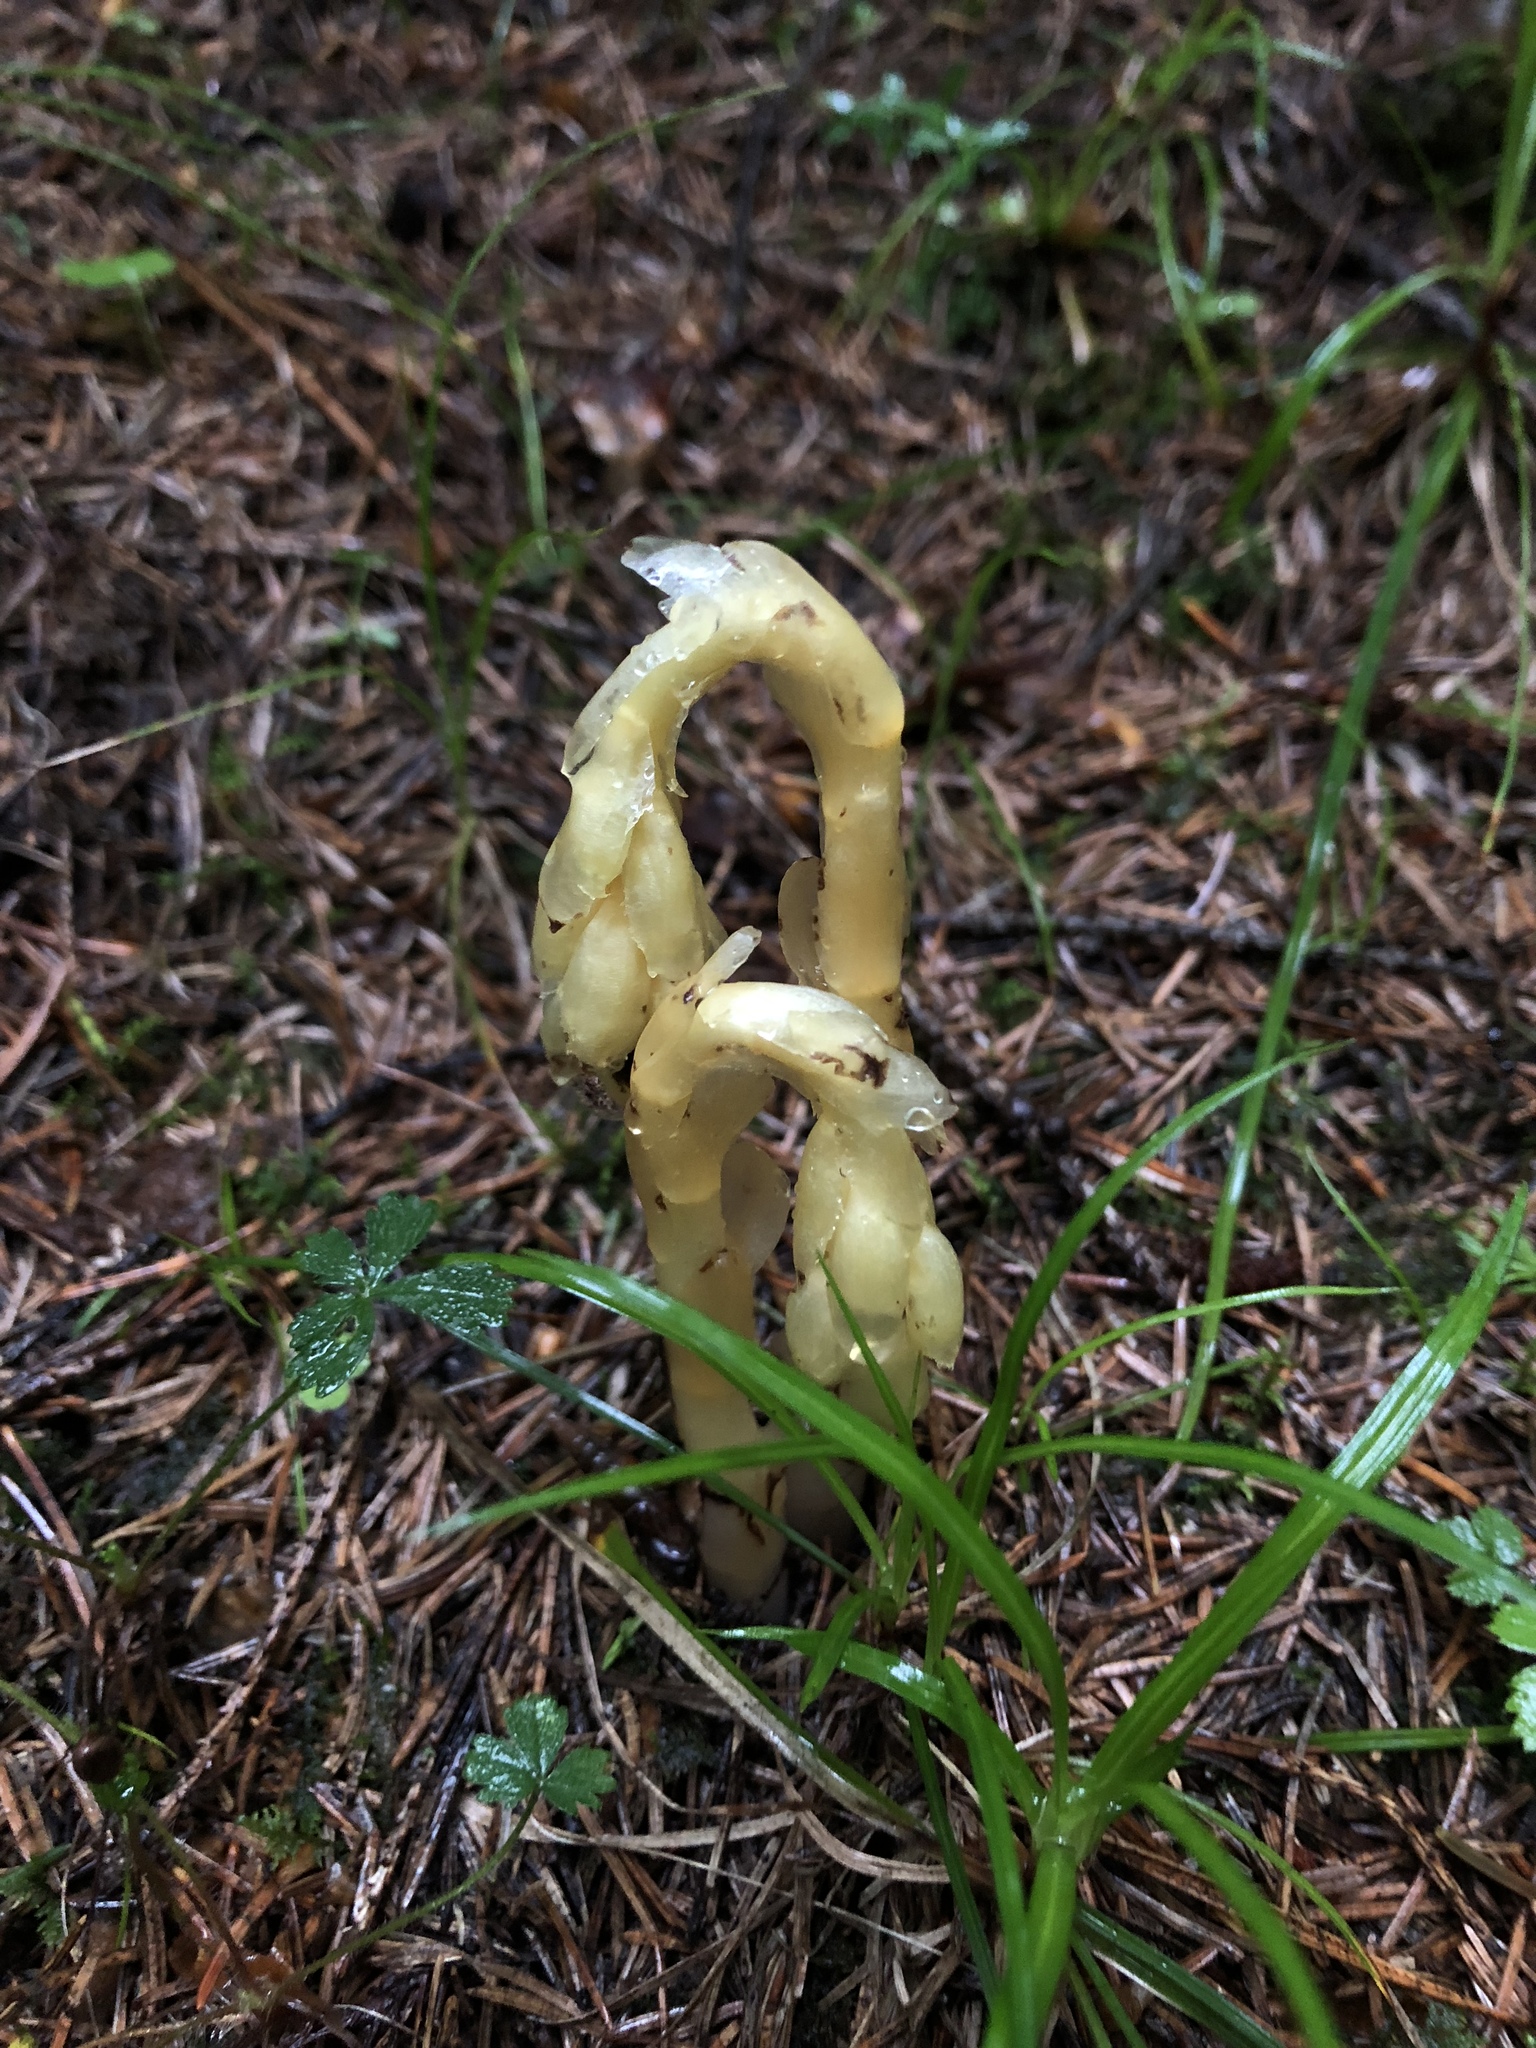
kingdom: Plantae
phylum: Tracheophyta
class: Magnoliopsida
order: Ericales
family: Ericaceae
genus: Hypopitys
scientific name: Hypopitys monotropa
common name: Yellow bird's-nest
